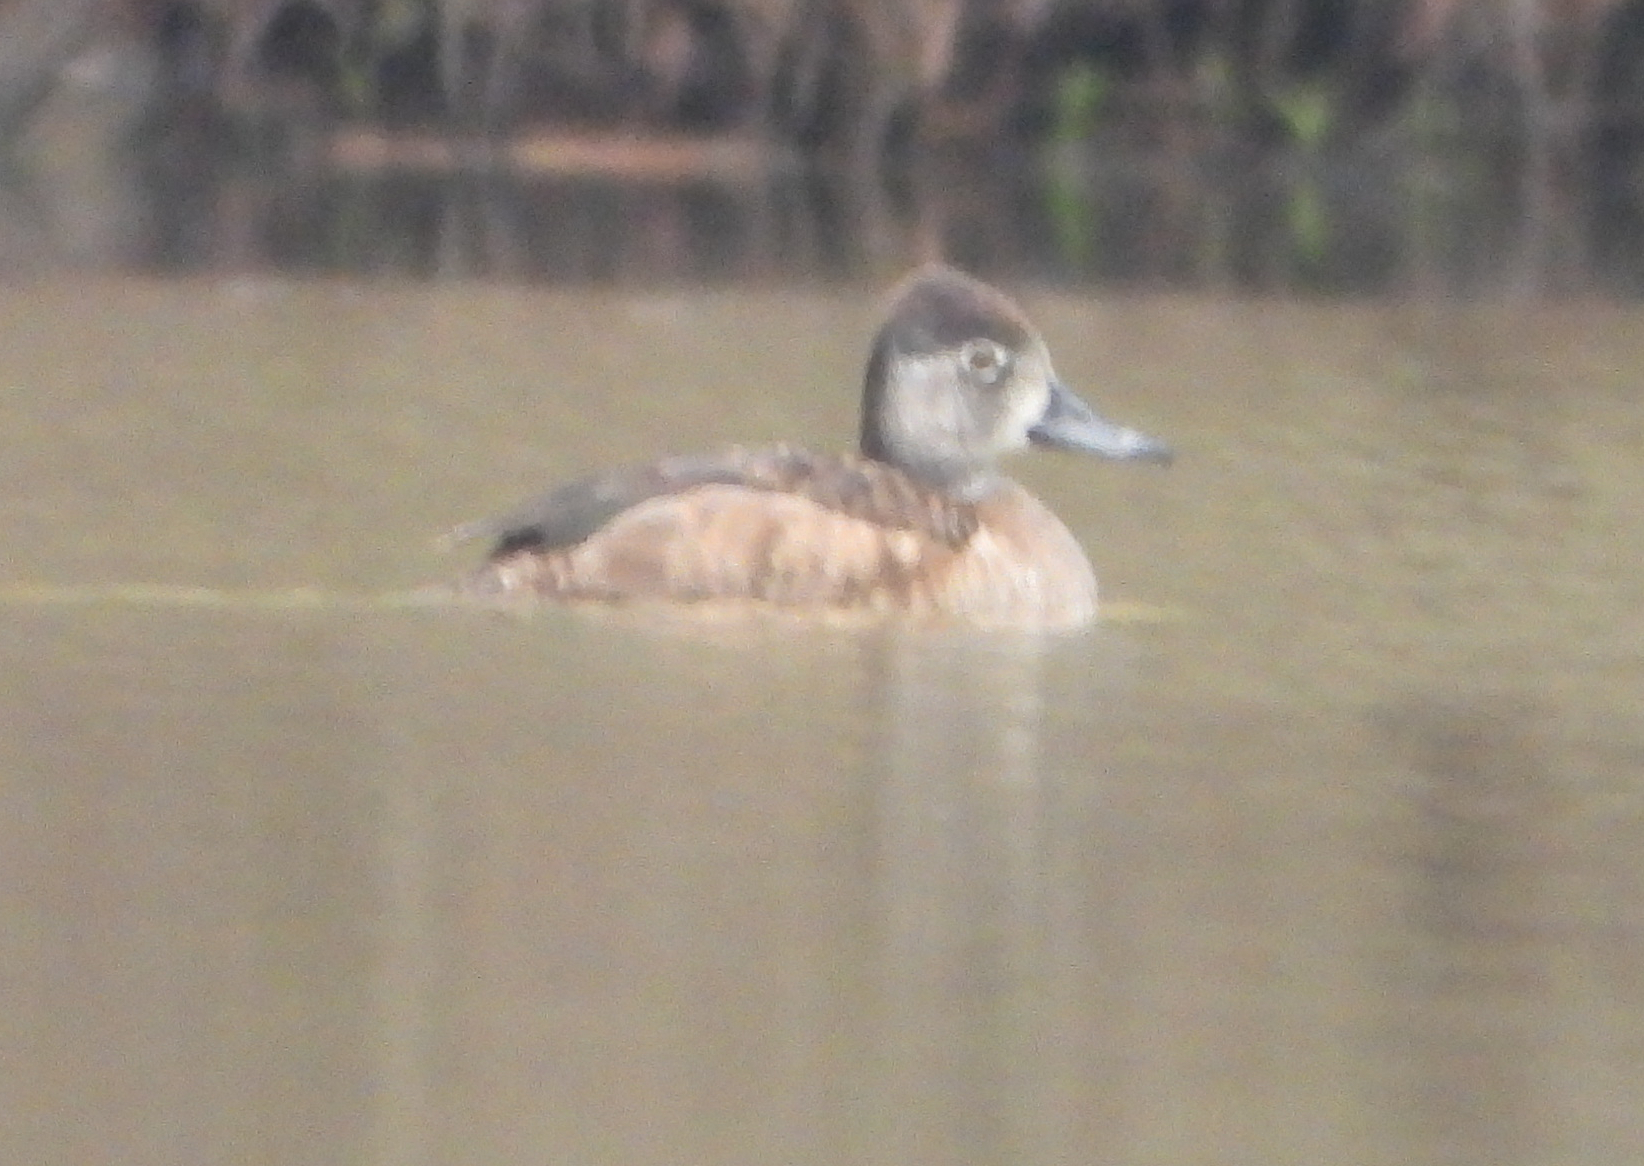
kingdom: Animalia
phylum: Chordata
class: Aves
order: Anseriformes
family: Anatidae
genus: Aythya
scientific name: Aythya collaris
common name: Ring-necked duck
